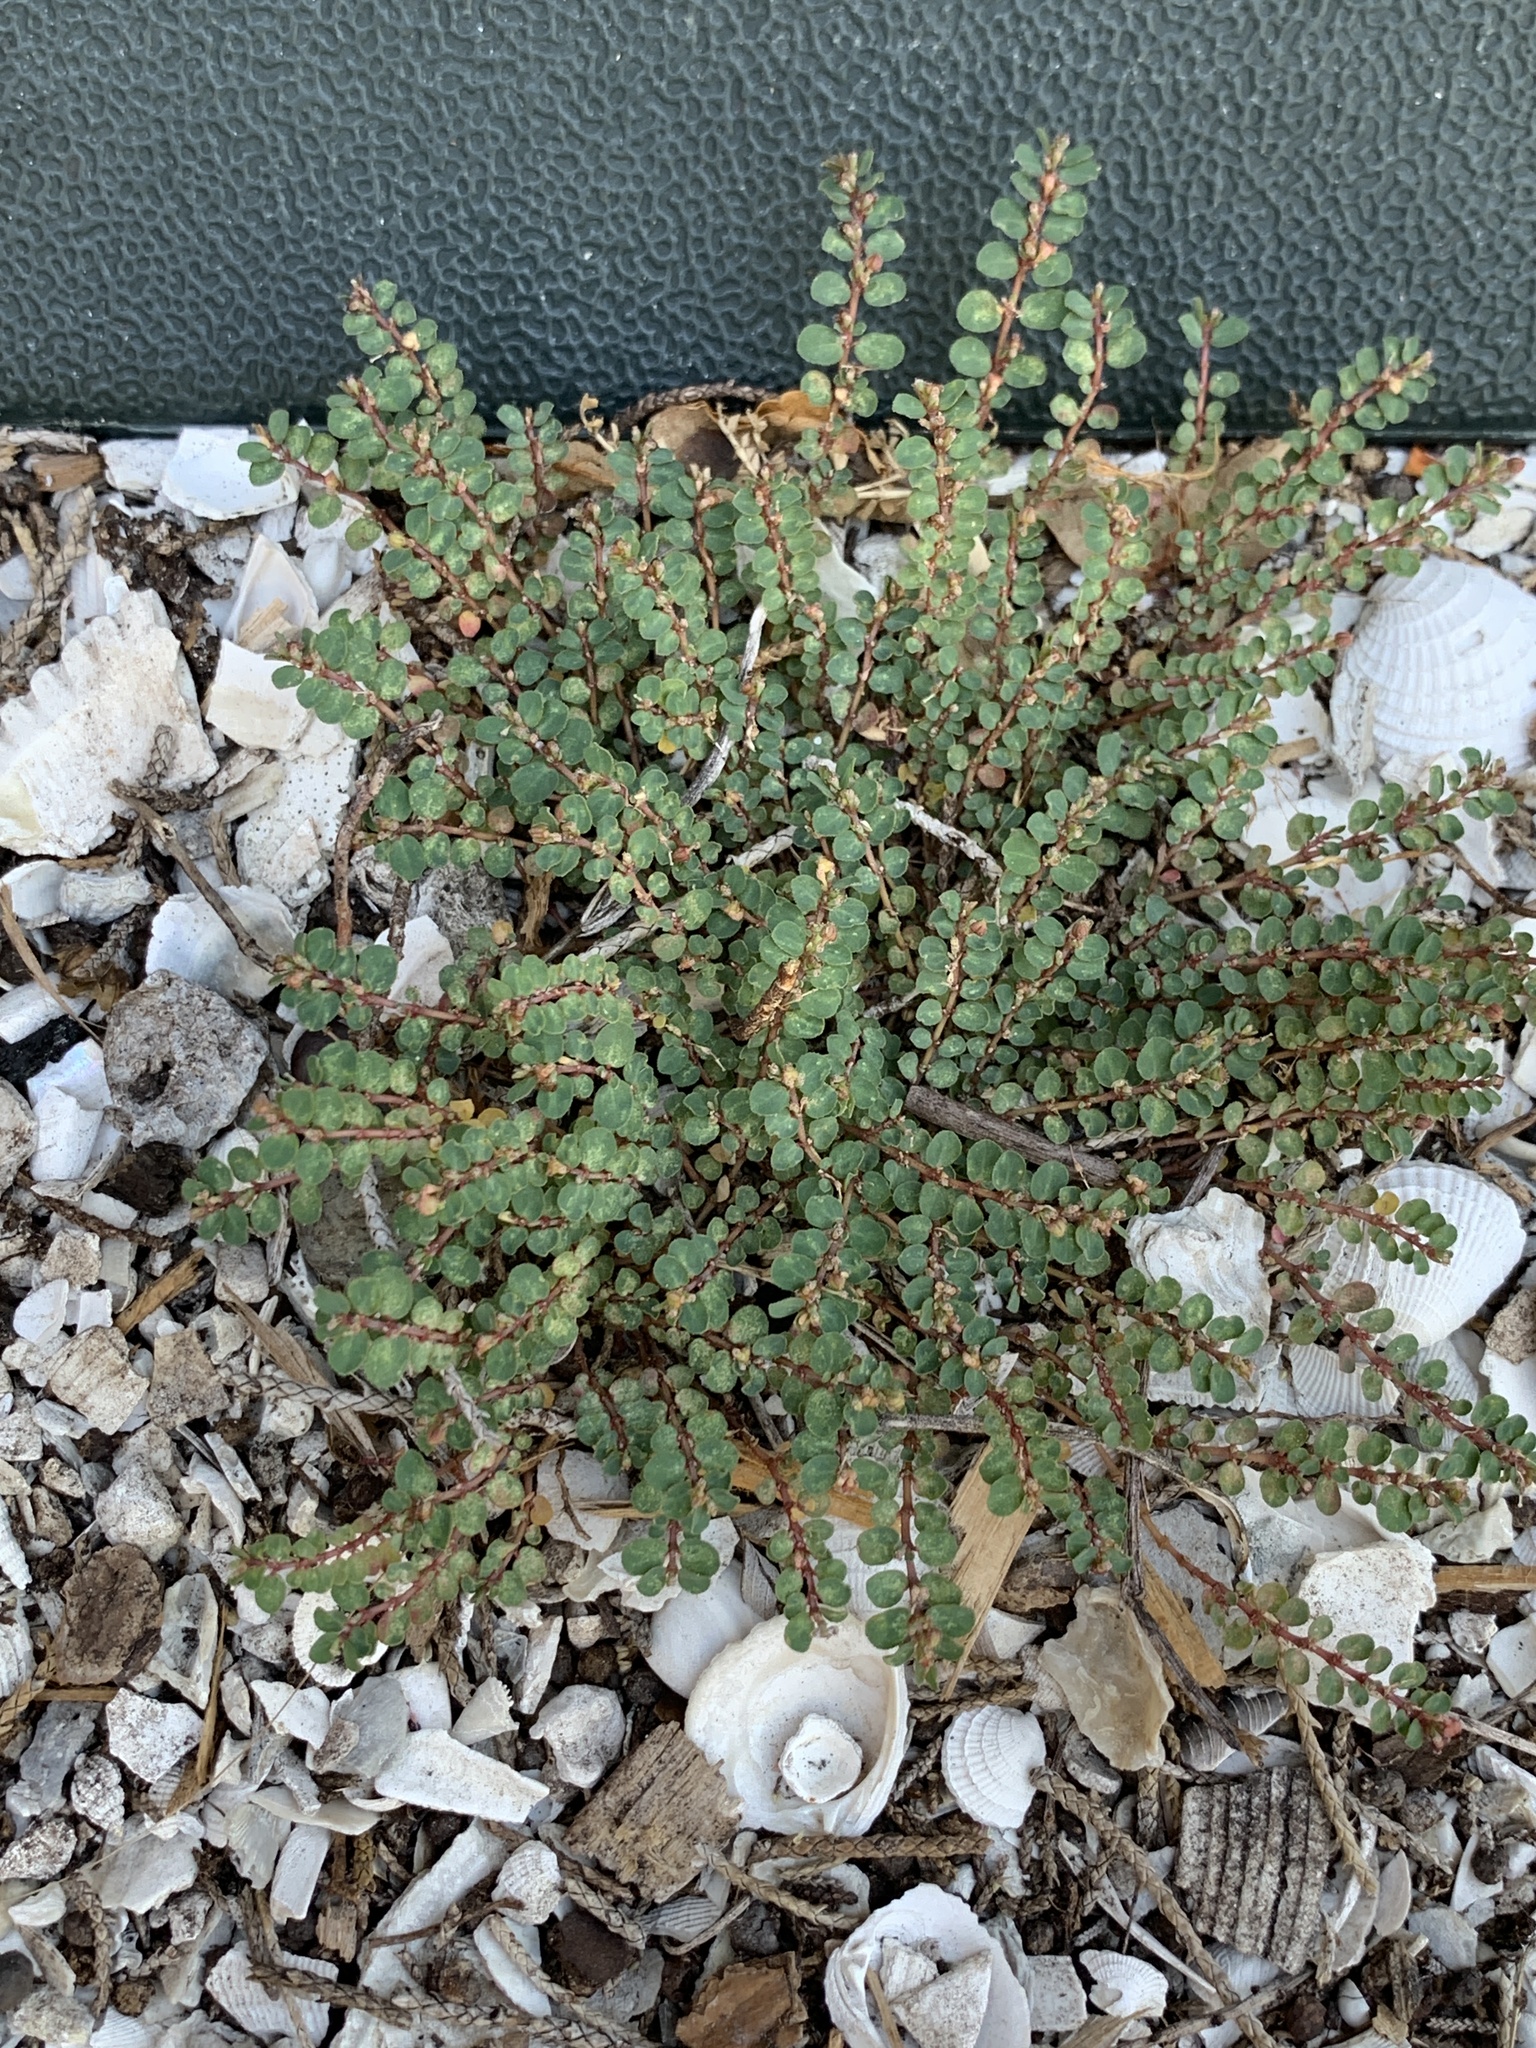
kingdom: Plantae
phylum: Tracheophyta
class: Magnoliopsida
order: Malpighiales
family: Euphorbiaceae
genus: Euphorbia
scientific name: Euphorbia prostrata
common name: Prostrate sandmat
